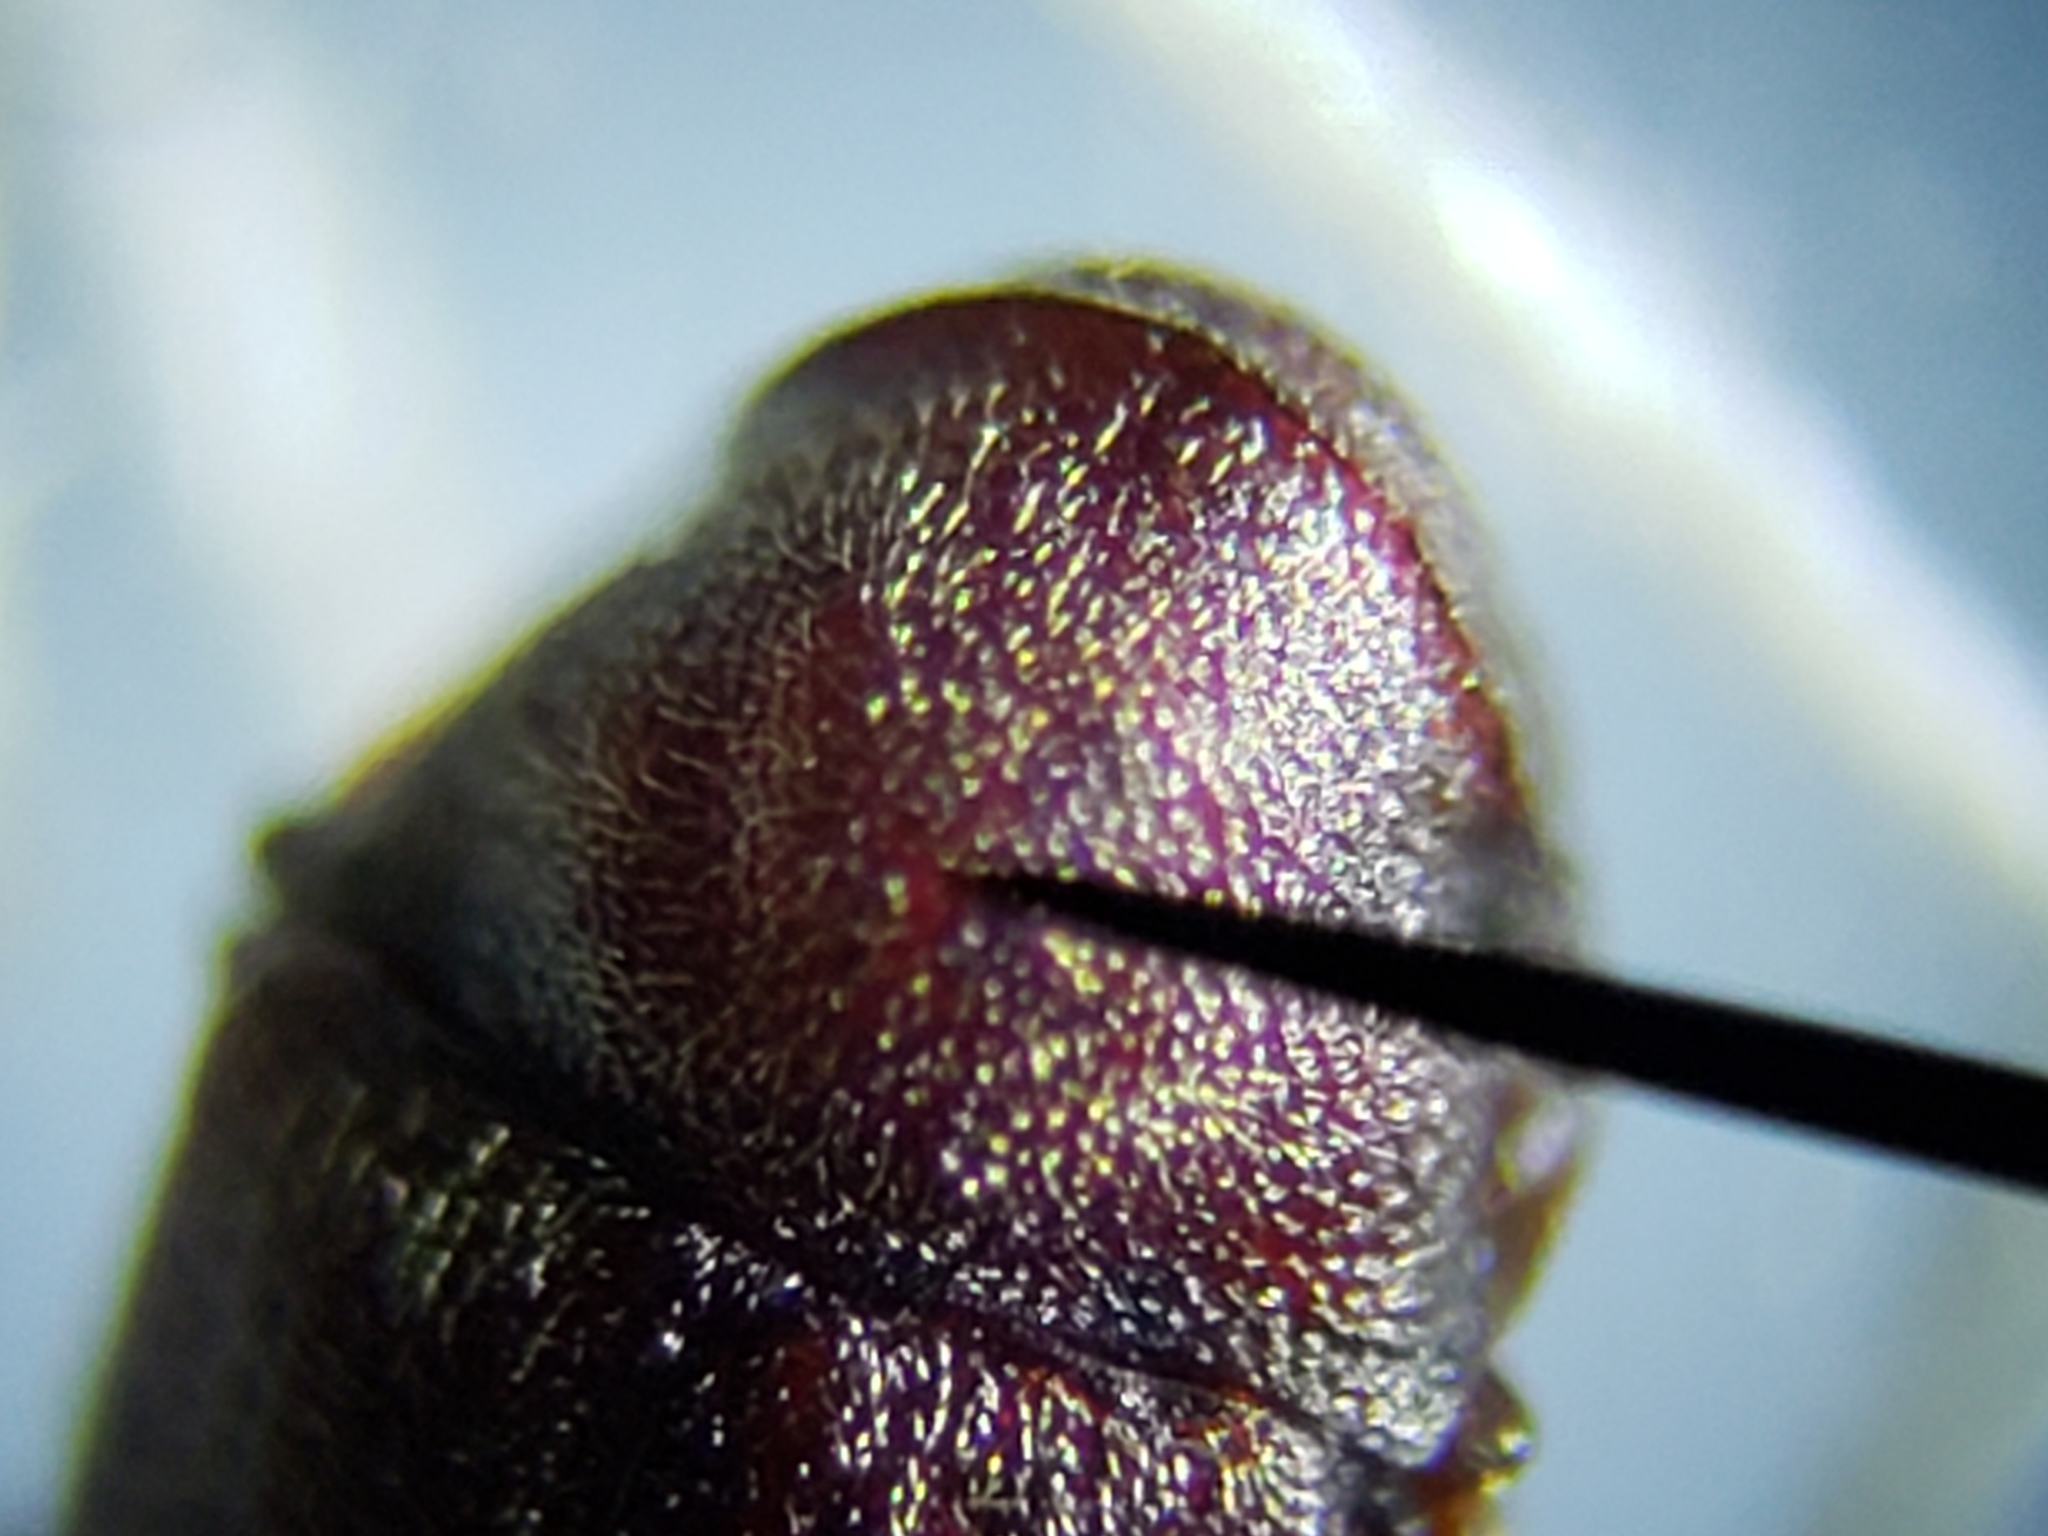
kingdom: Animalia
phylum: Arthropoda
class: Insecta
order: Coleoptera
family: Anobiidae
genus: Petalium
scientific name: Petalium debile
